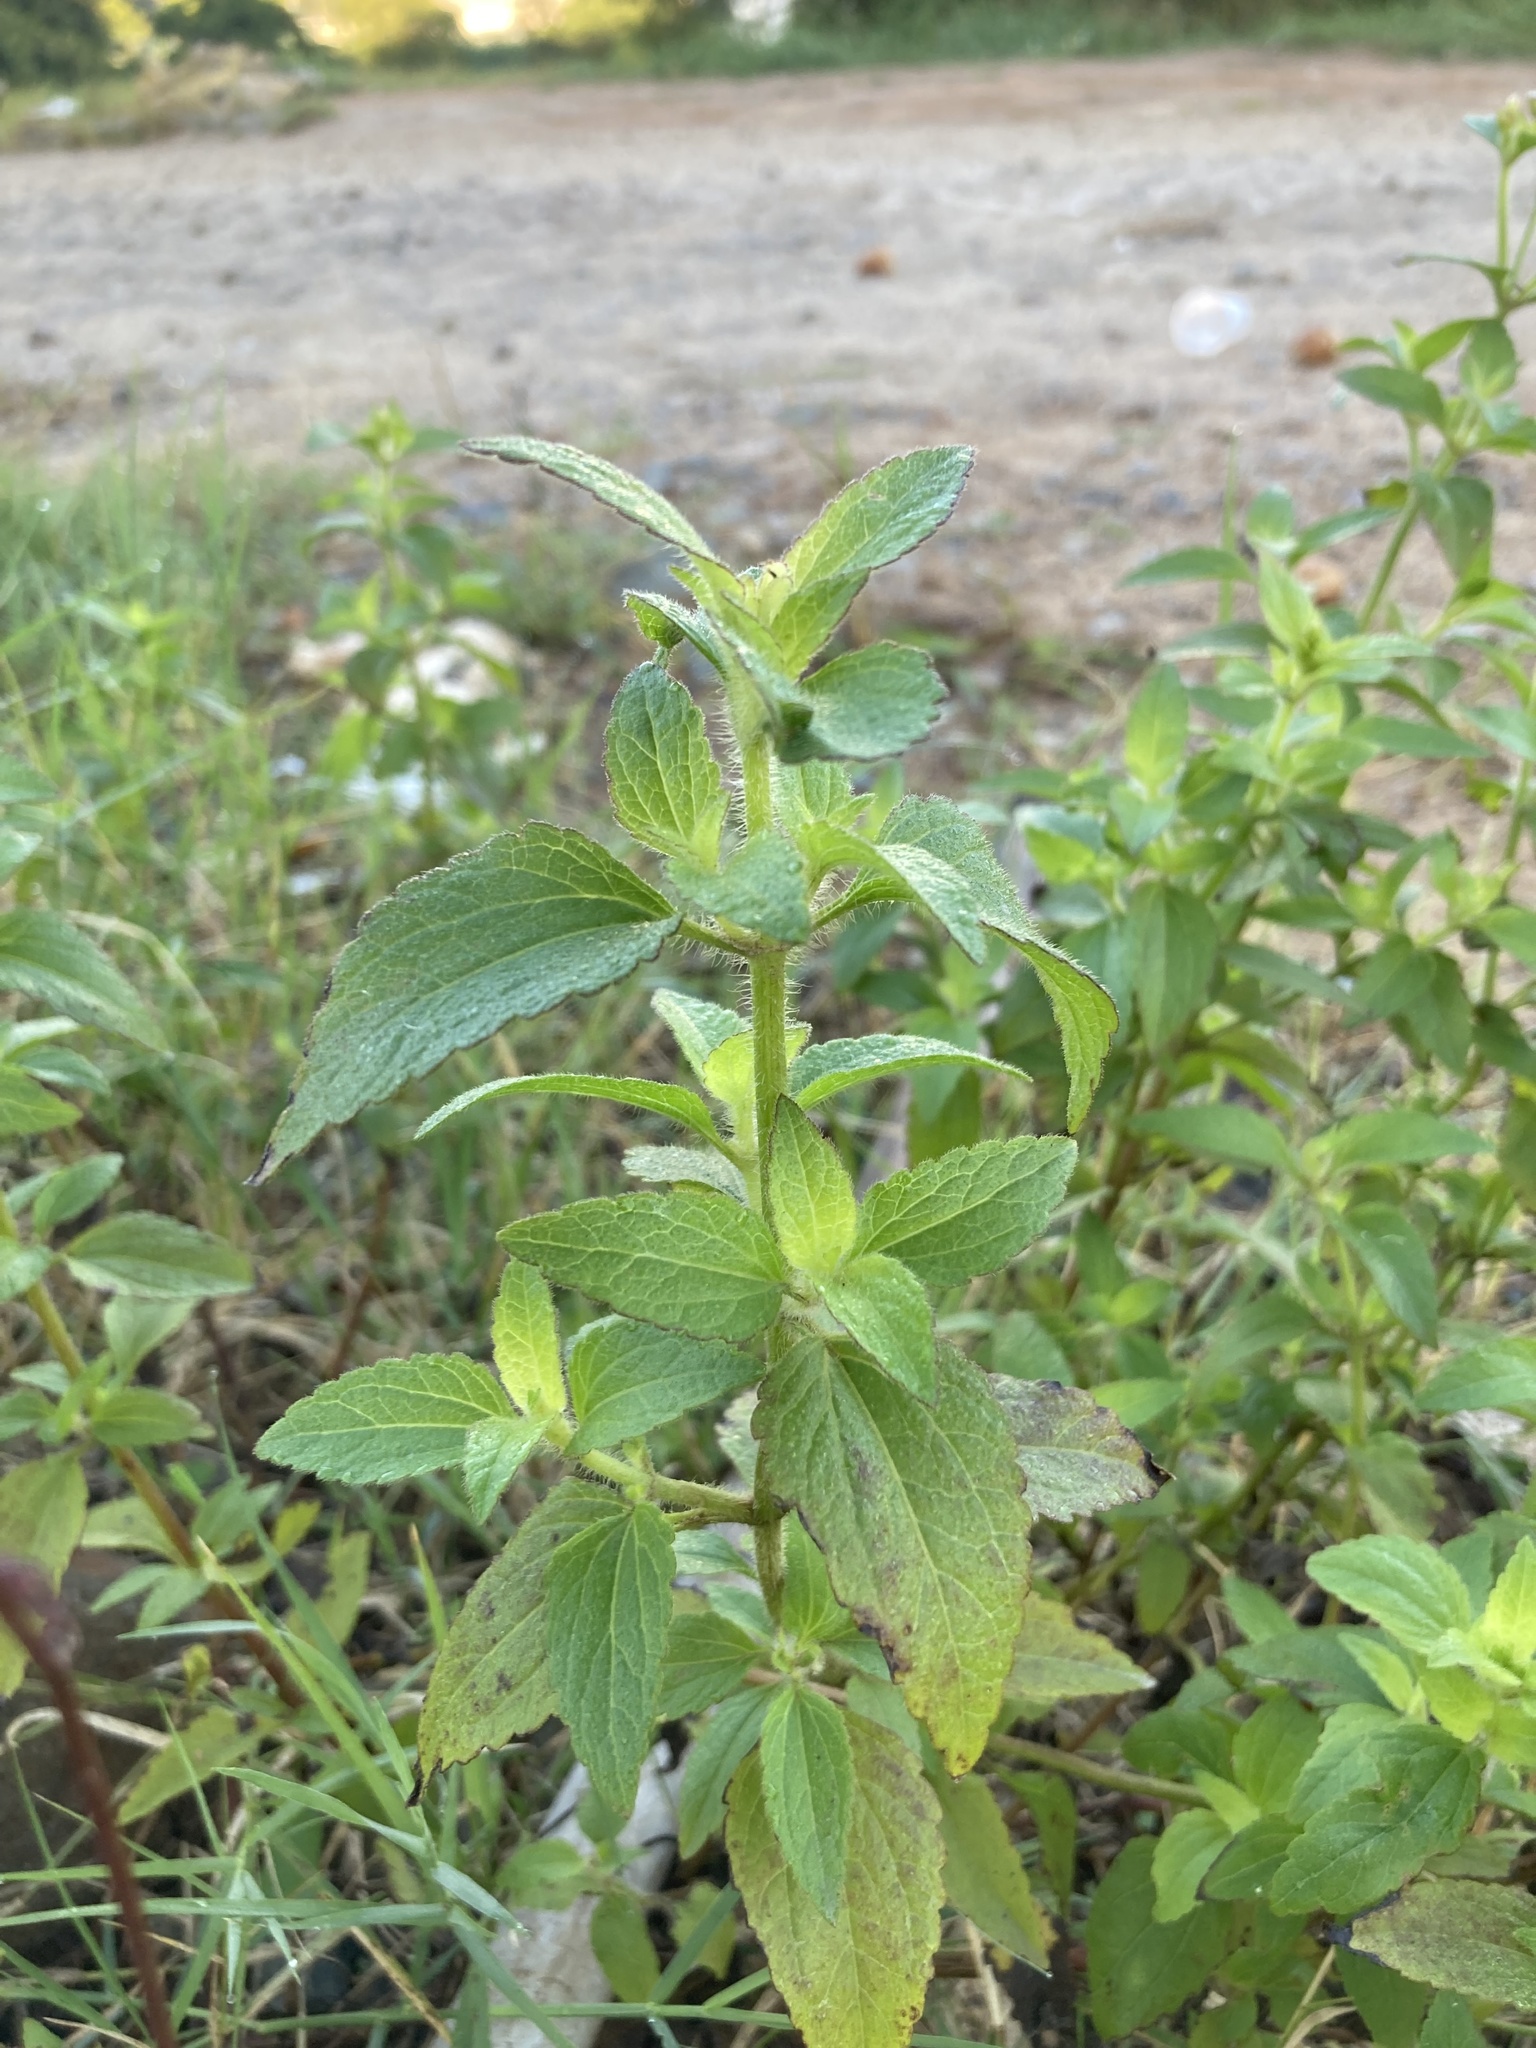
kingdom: Plantae
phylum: Tracheophyta
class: Magnoliopsida
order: Asterales
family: Asteraceae
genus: Praxelis
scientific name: Praxelis clematidea
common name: Praxelis
